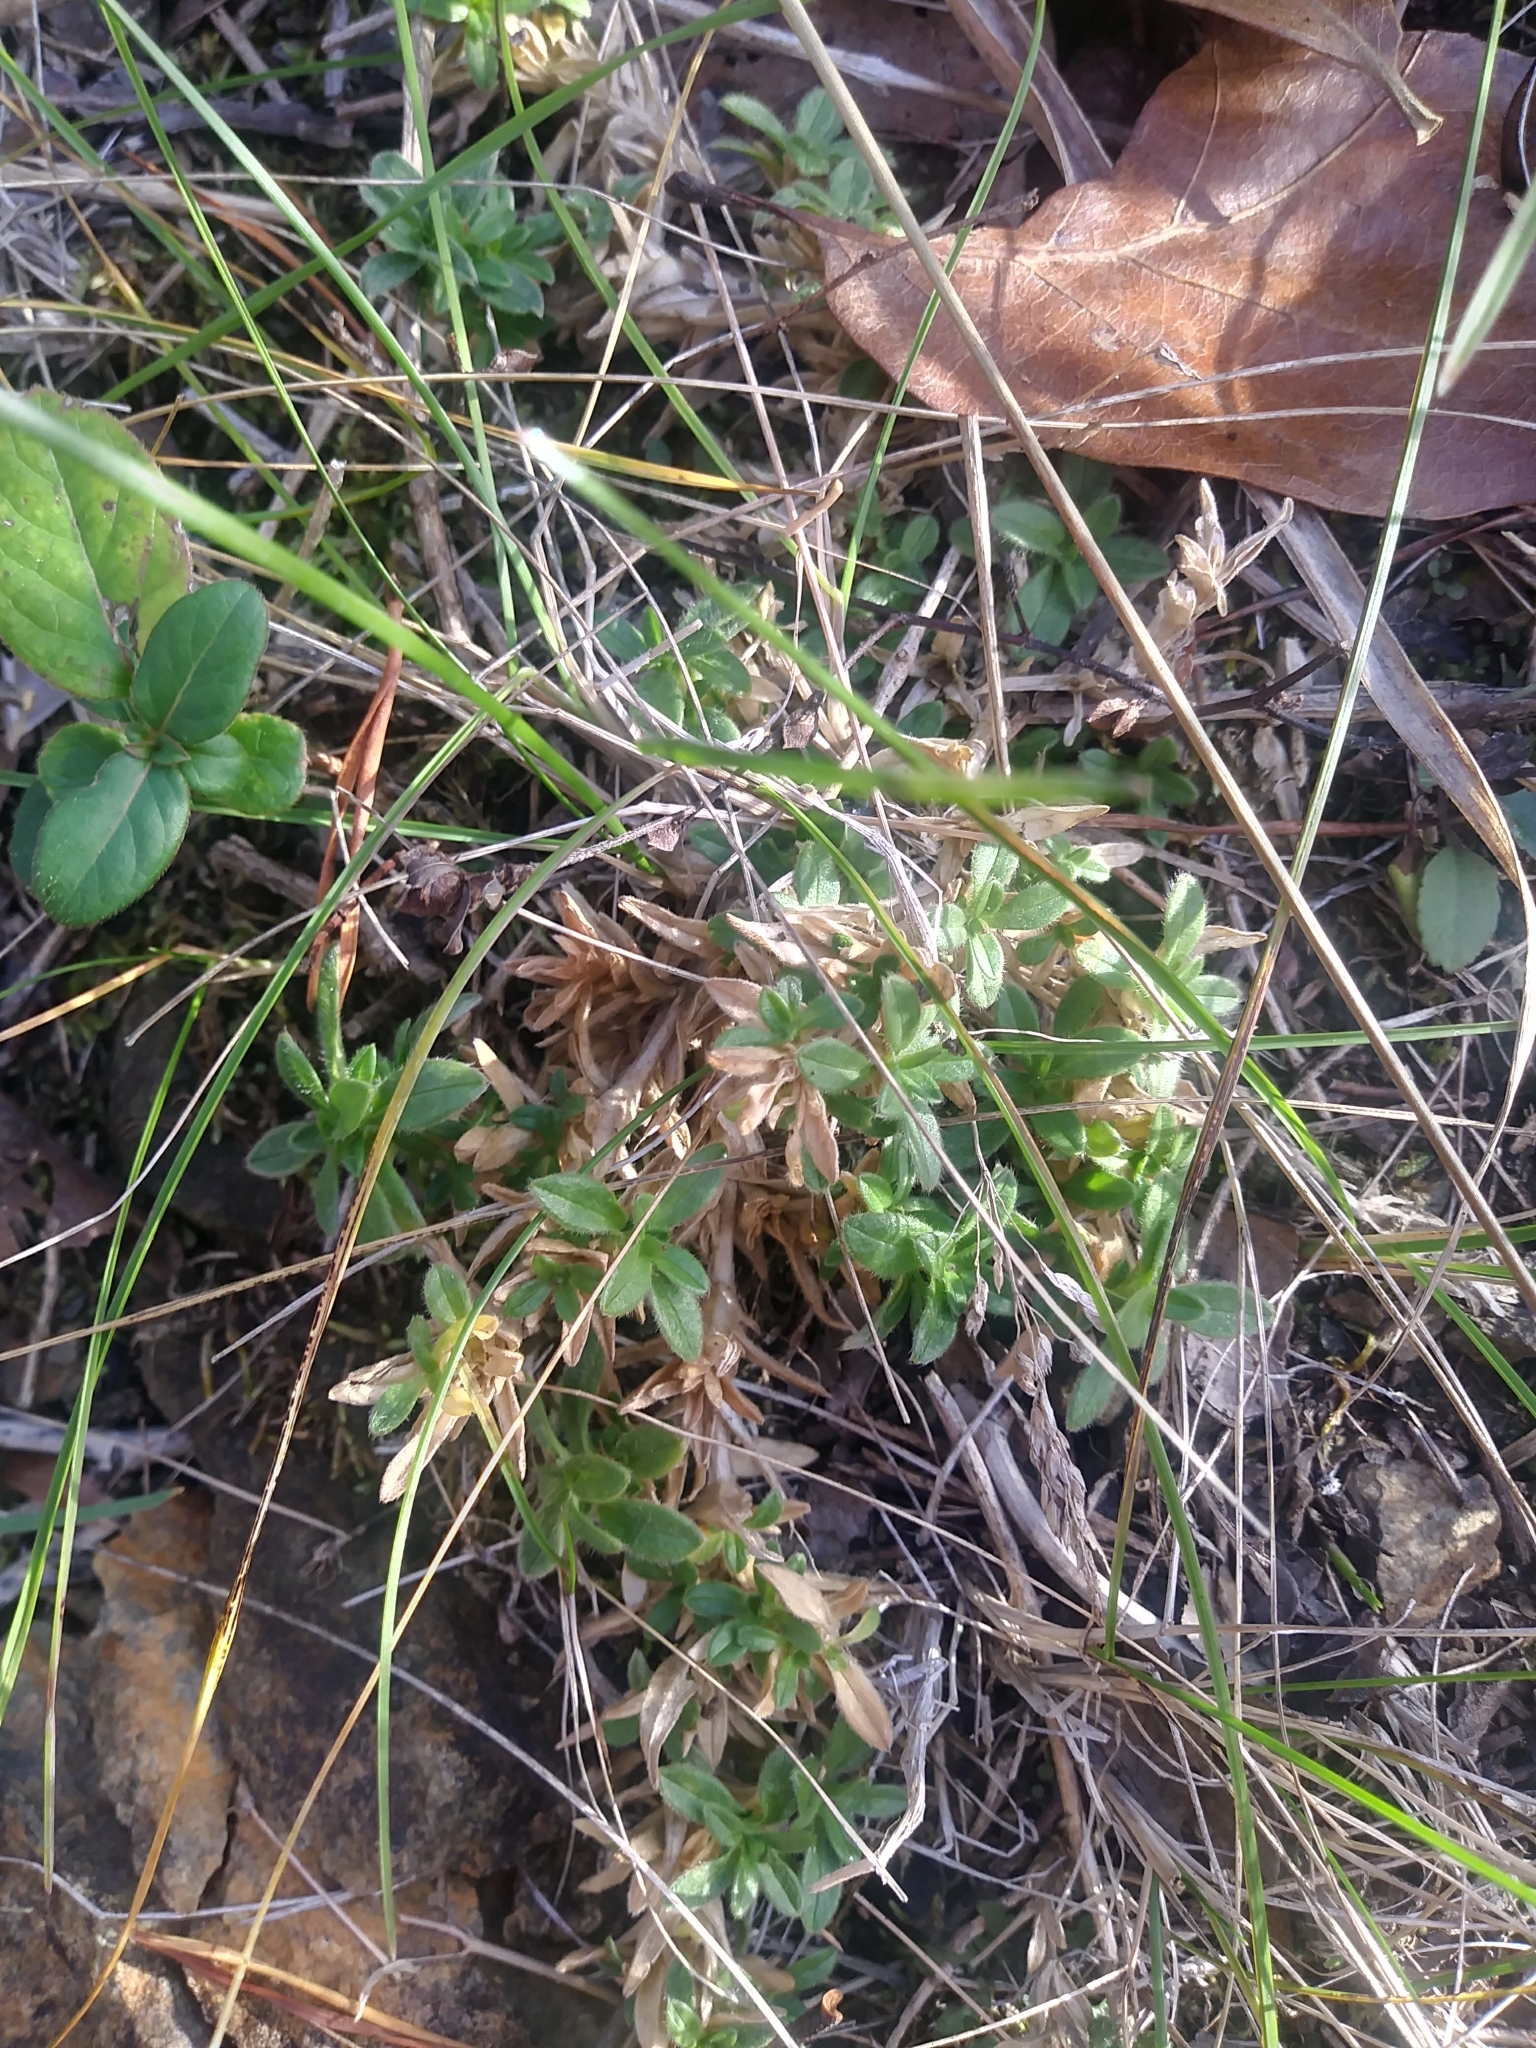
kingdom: Plantae
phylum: Tracheophyta
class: Magnoliopsida
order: Caryophyllales
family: Caryophyllaceae
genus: Cerastium
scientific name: Cerastium velutinum
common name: Barren chickweed
